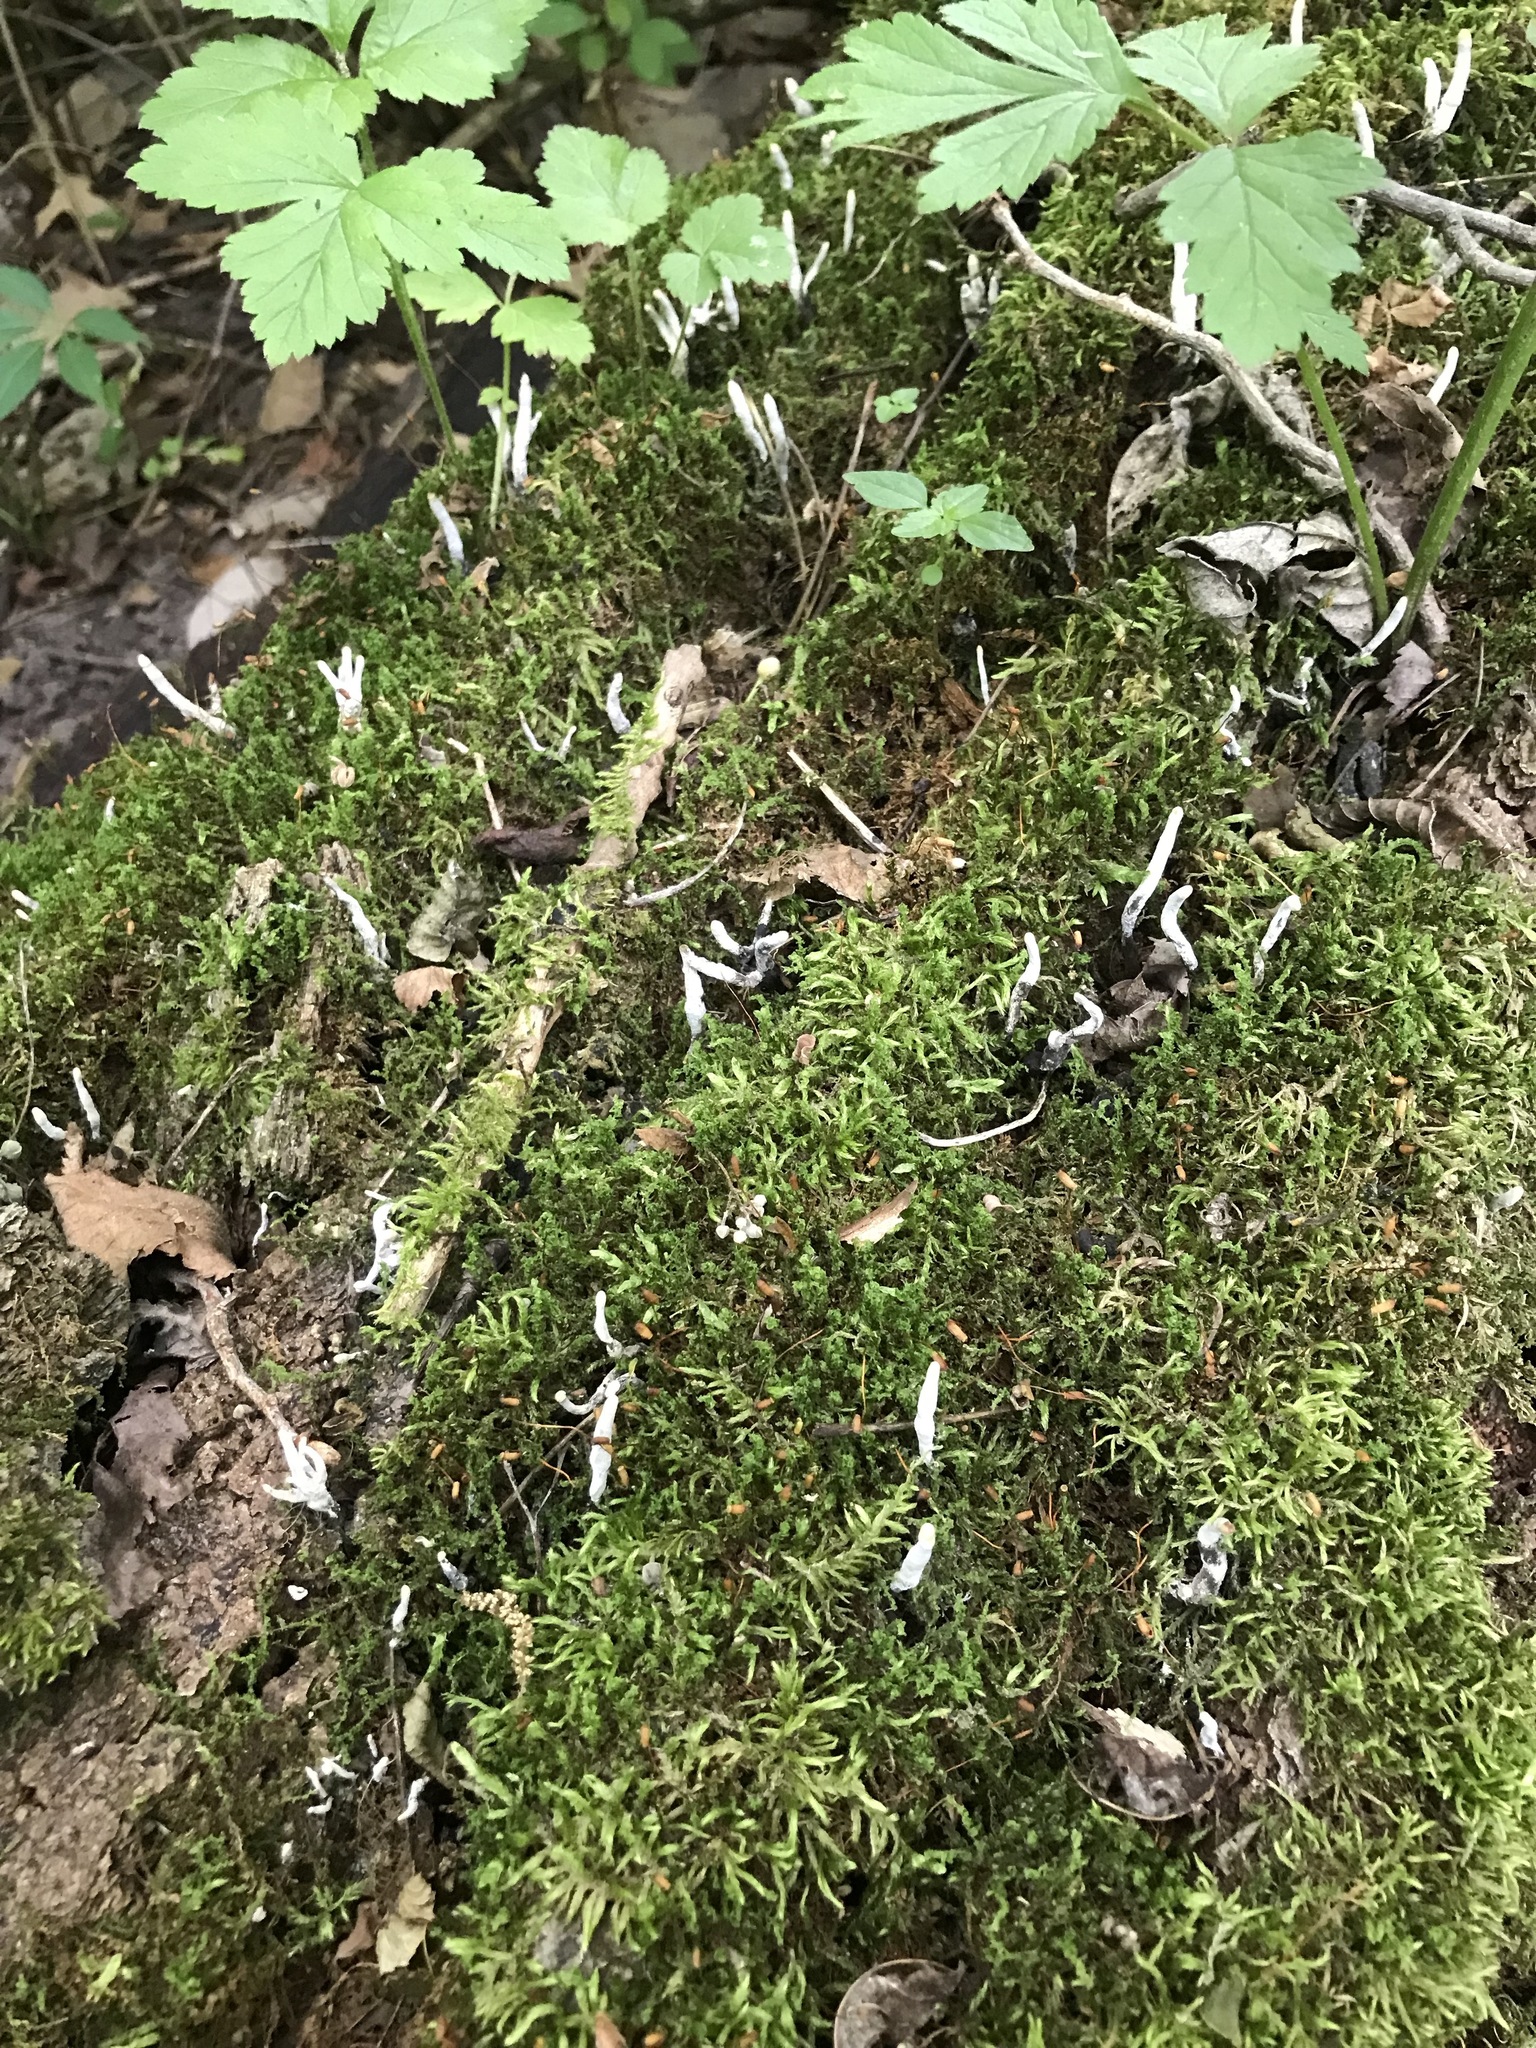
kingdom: Fungi
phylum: Ascomycota
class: Sordariomycetes
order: Xylariales
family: Xylariaceae
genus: Xylaria
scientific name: Xylaria hypoxylon
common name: Candle-snuff fungus
